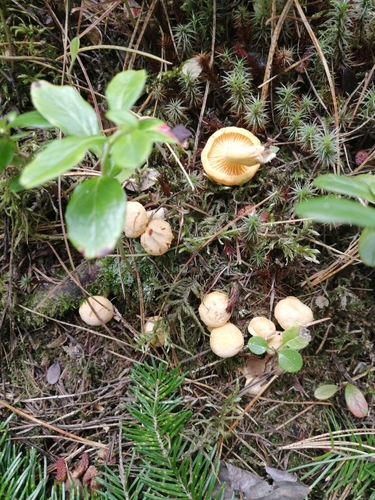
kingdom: Fungi
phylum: Basidiomycota
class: Agaricomycetes
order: Cantharellales
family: Hydnaceae
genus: Cantharellus
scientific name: Cantharellus cibarius
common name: Chanterelle
